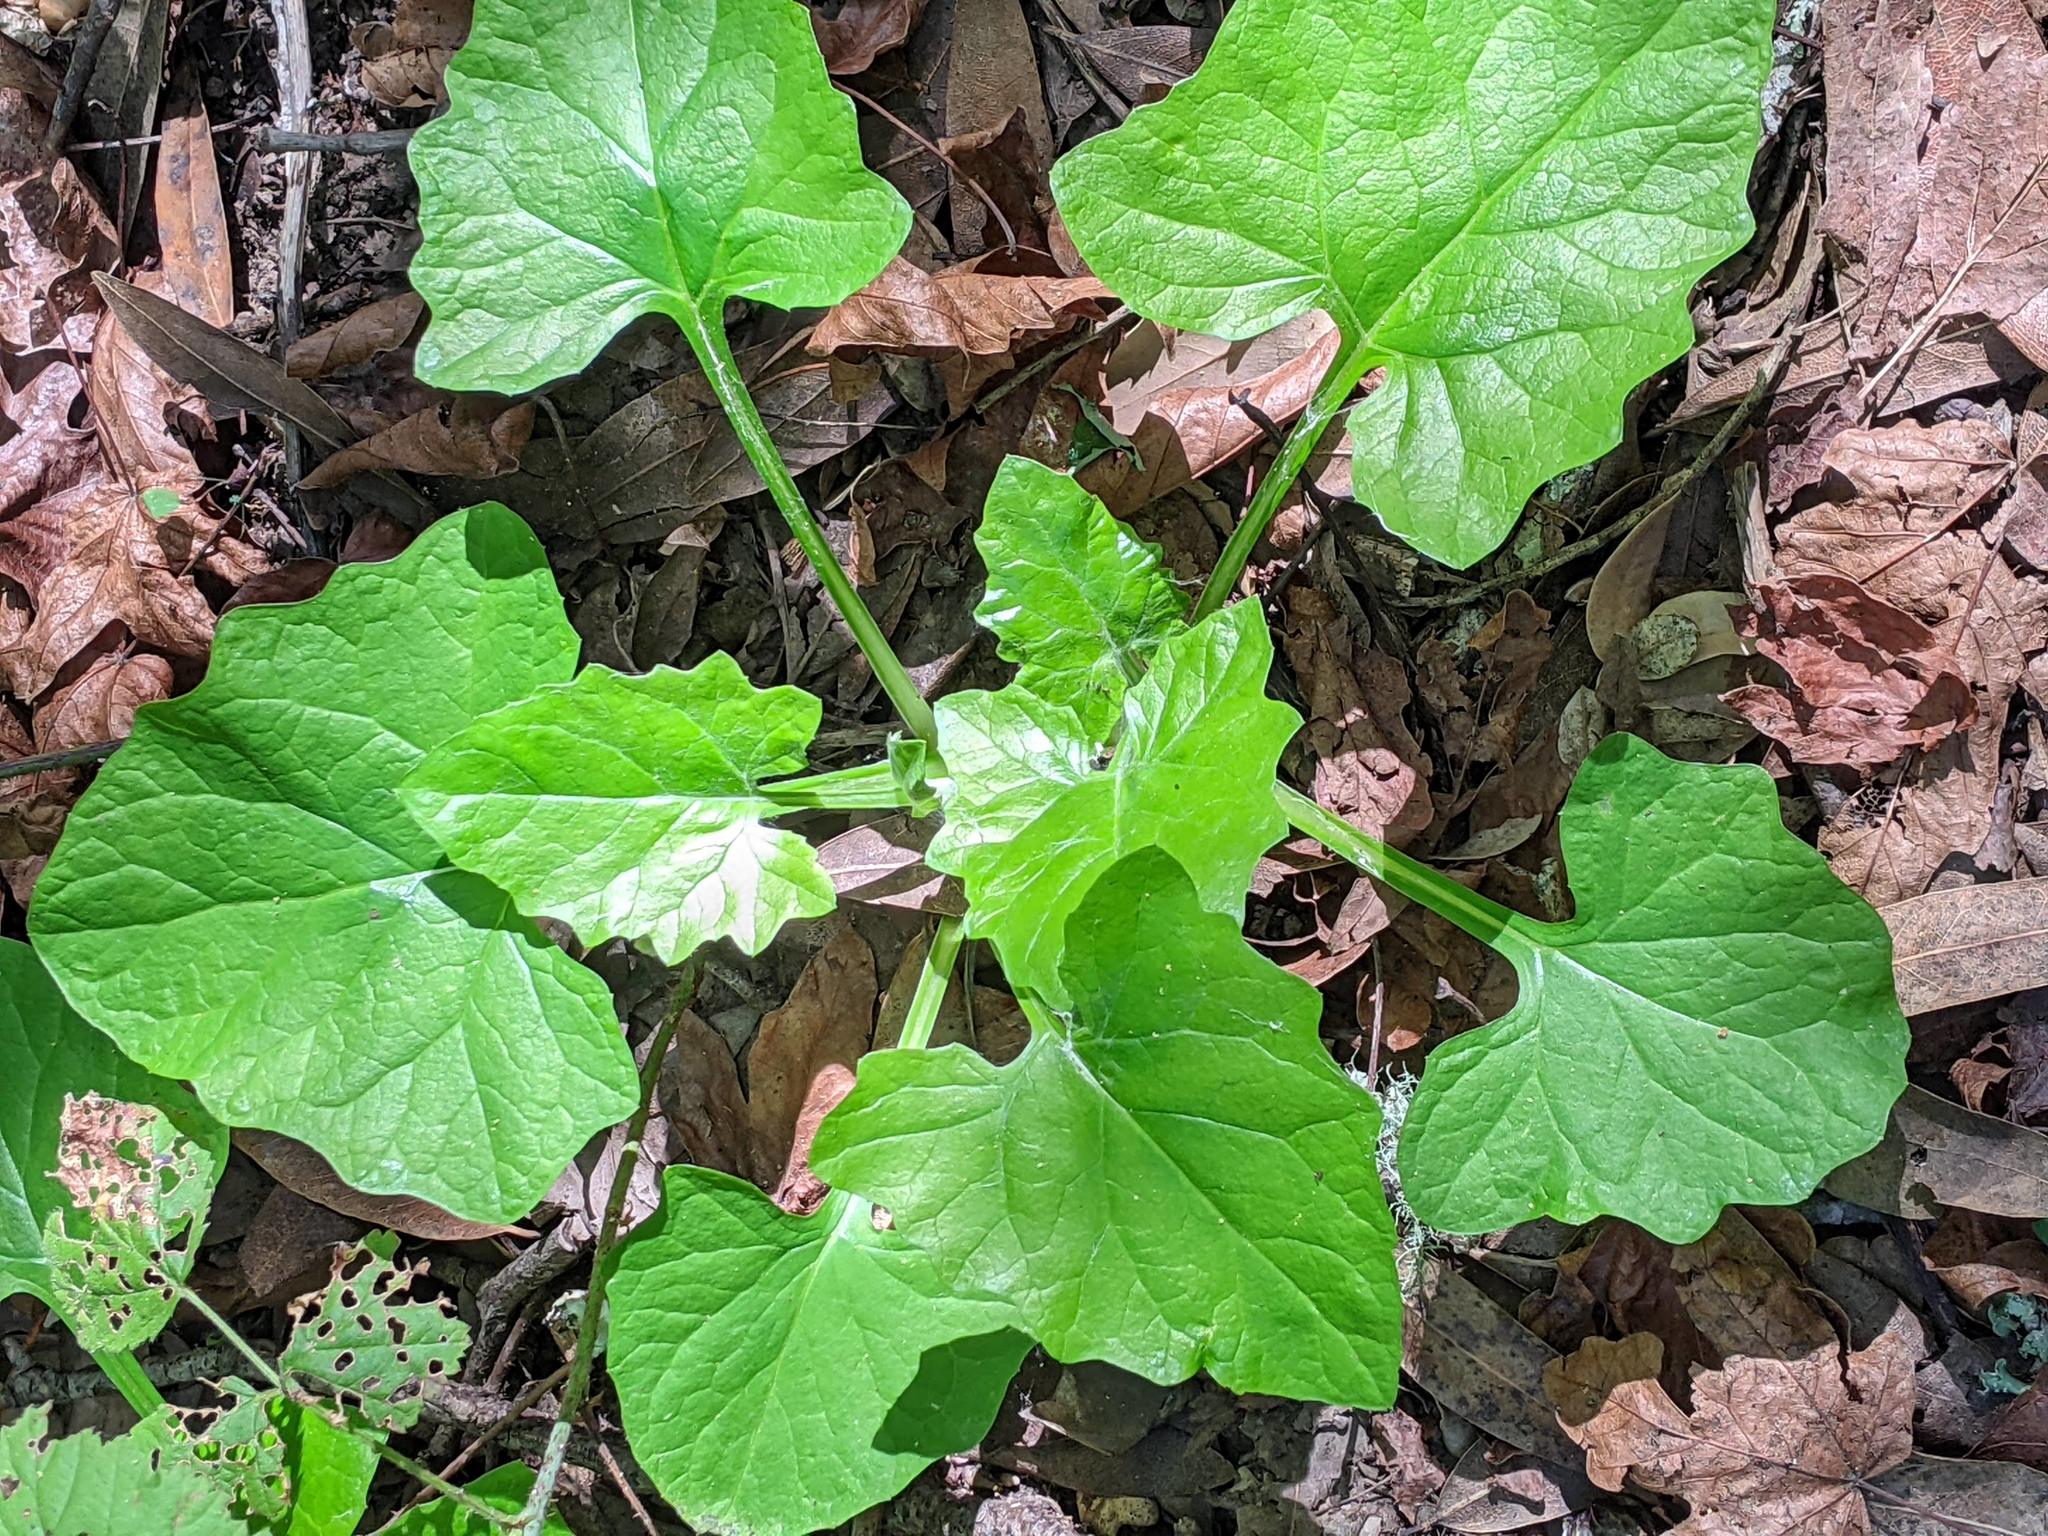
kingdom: Plantae
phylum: Tracheophyta
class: Magnoliopsida
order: Asterales
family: Asteraceae
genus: Adenocaulon
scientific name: Adenocaulon bicolor
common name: Trailplant
